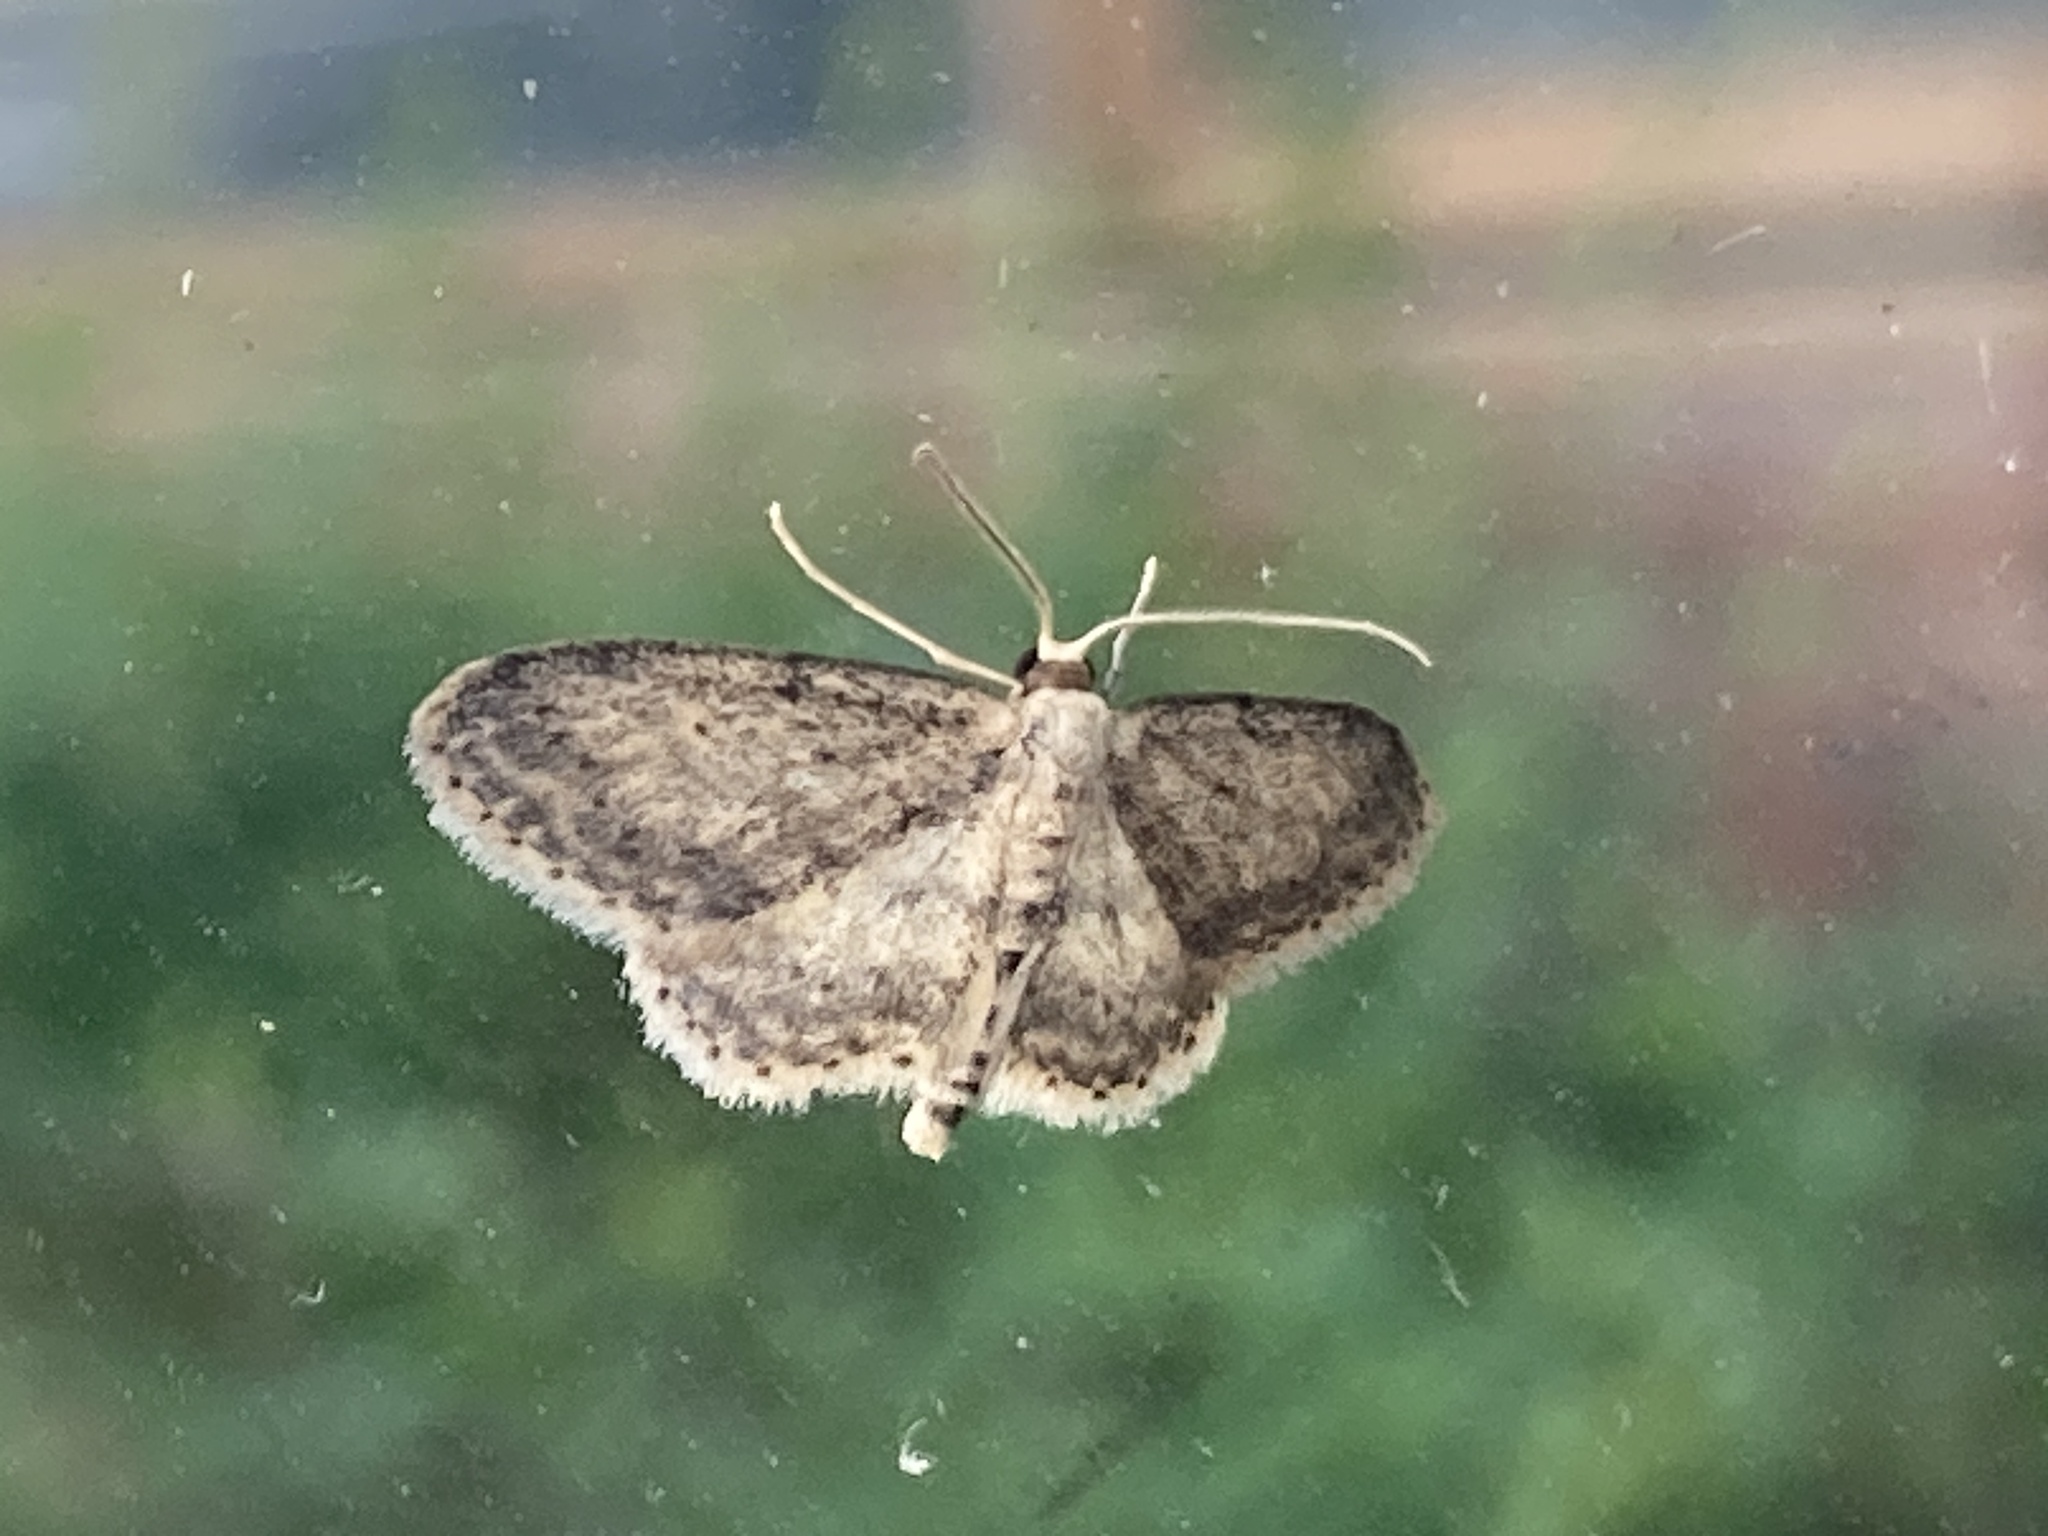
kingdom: Animalia
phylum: Arthropoda
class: Insecta
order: Lepidoptera
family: Geometridae
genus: Idaea
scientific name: Idaea seriata
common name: Small dusty wave
